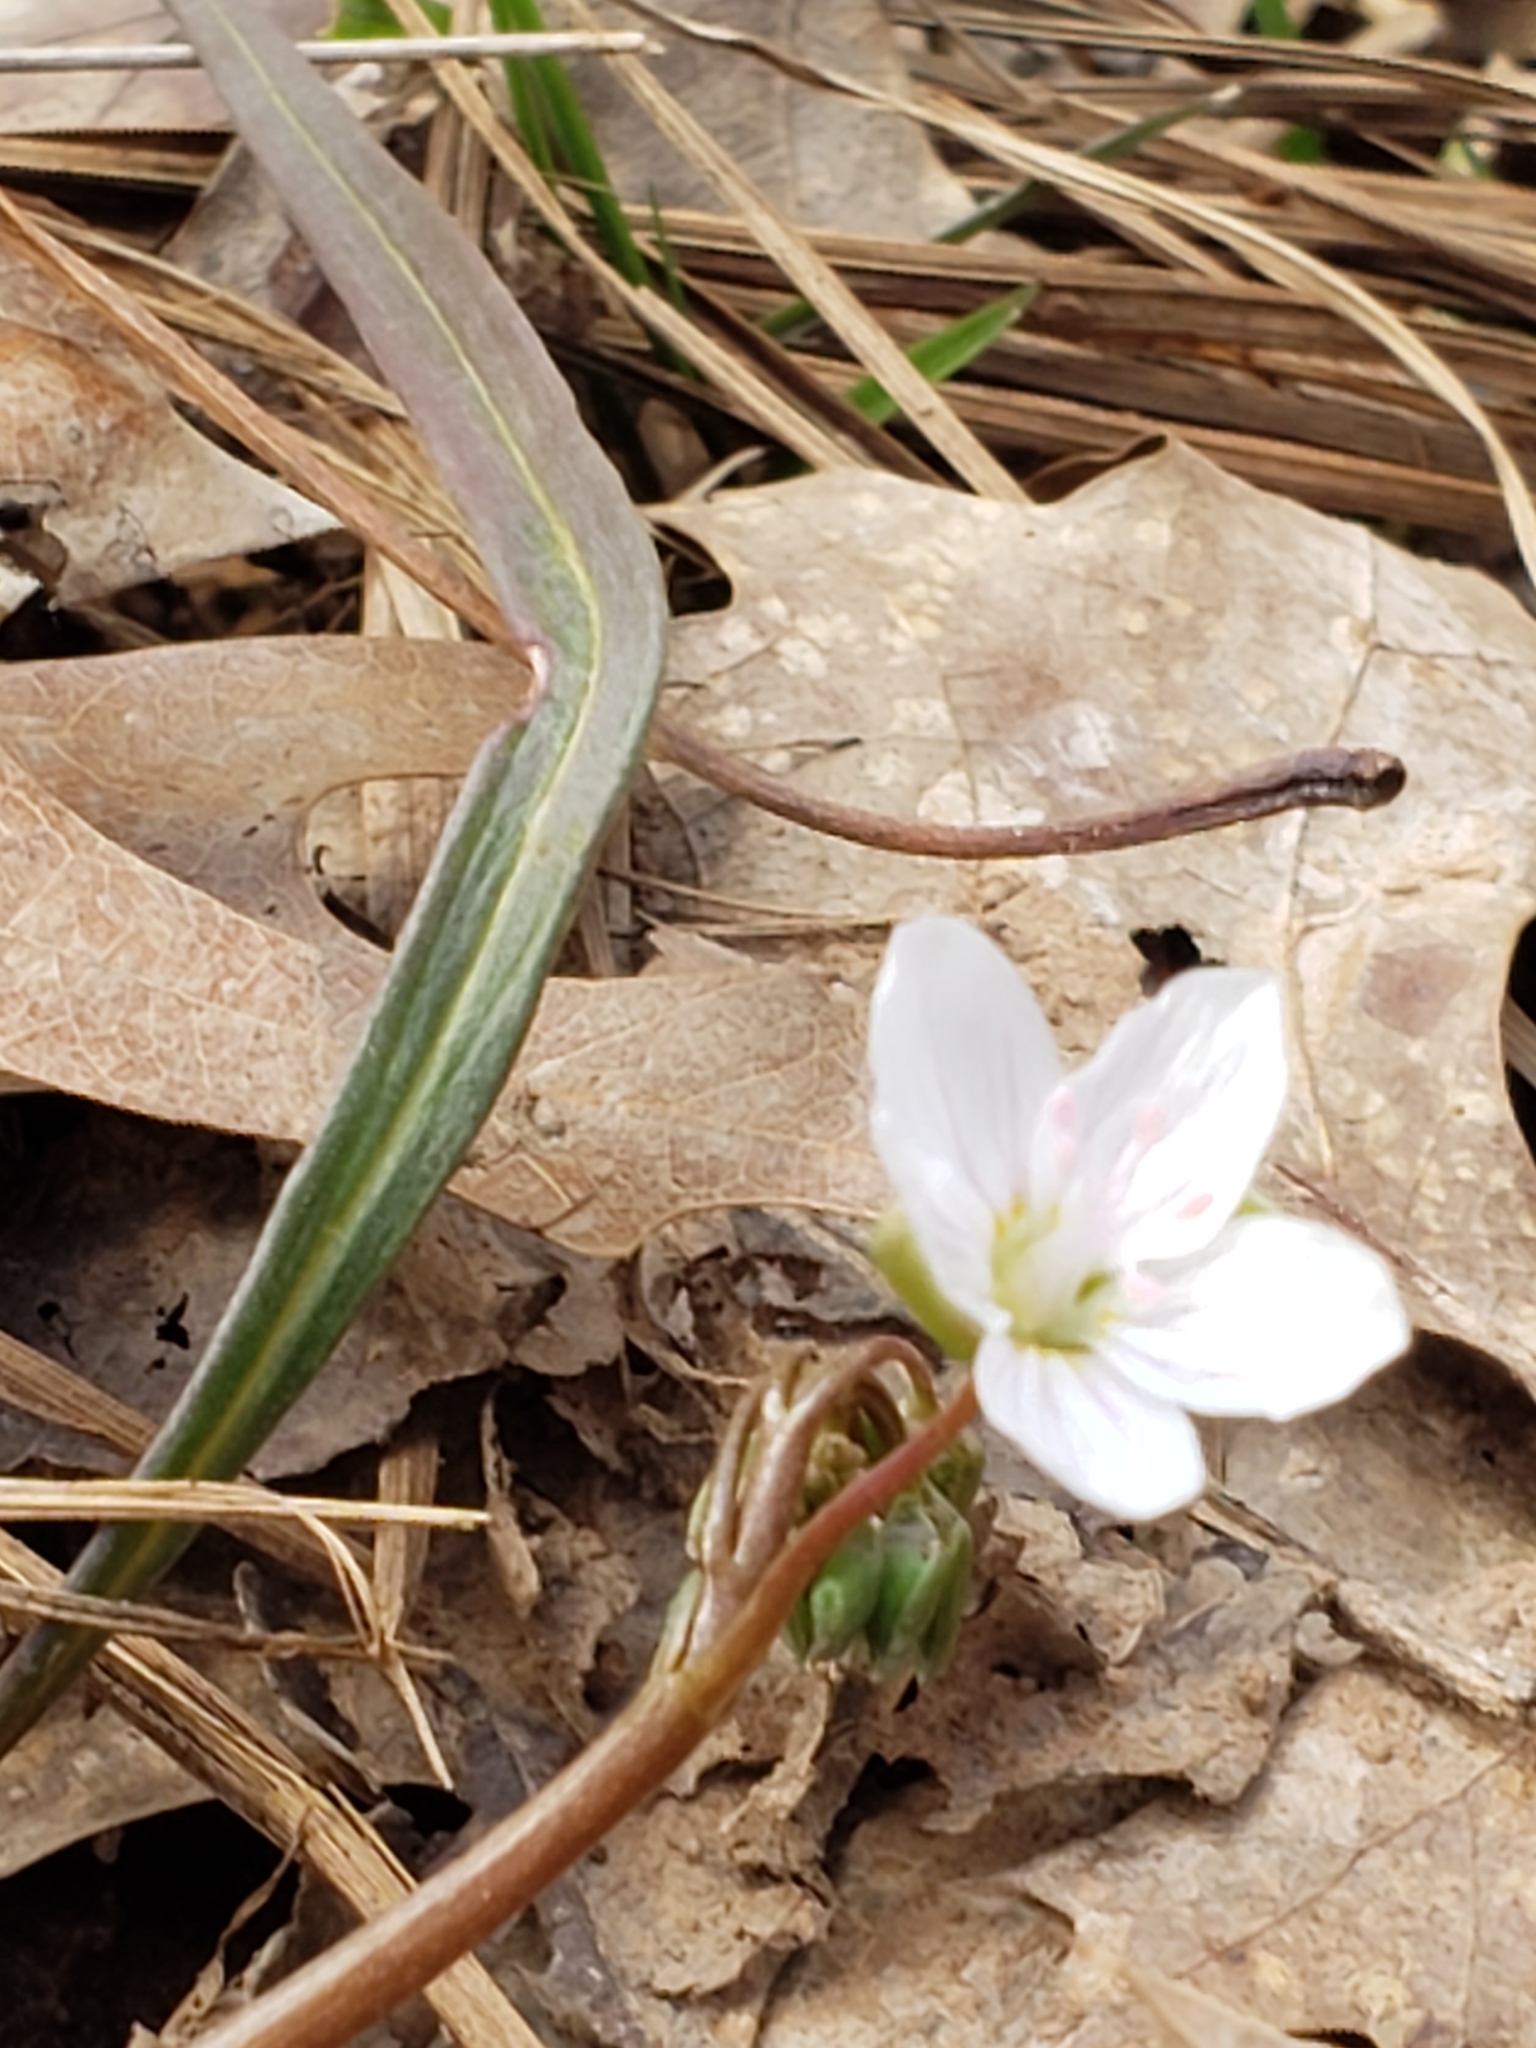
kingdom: Plantae
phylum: Tracheophyta
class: Magnoliopsida
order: Caryophyllales
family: Montiaceae
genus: Claytonia
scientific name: Claytonia virginica
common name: Virginia springbeauty
